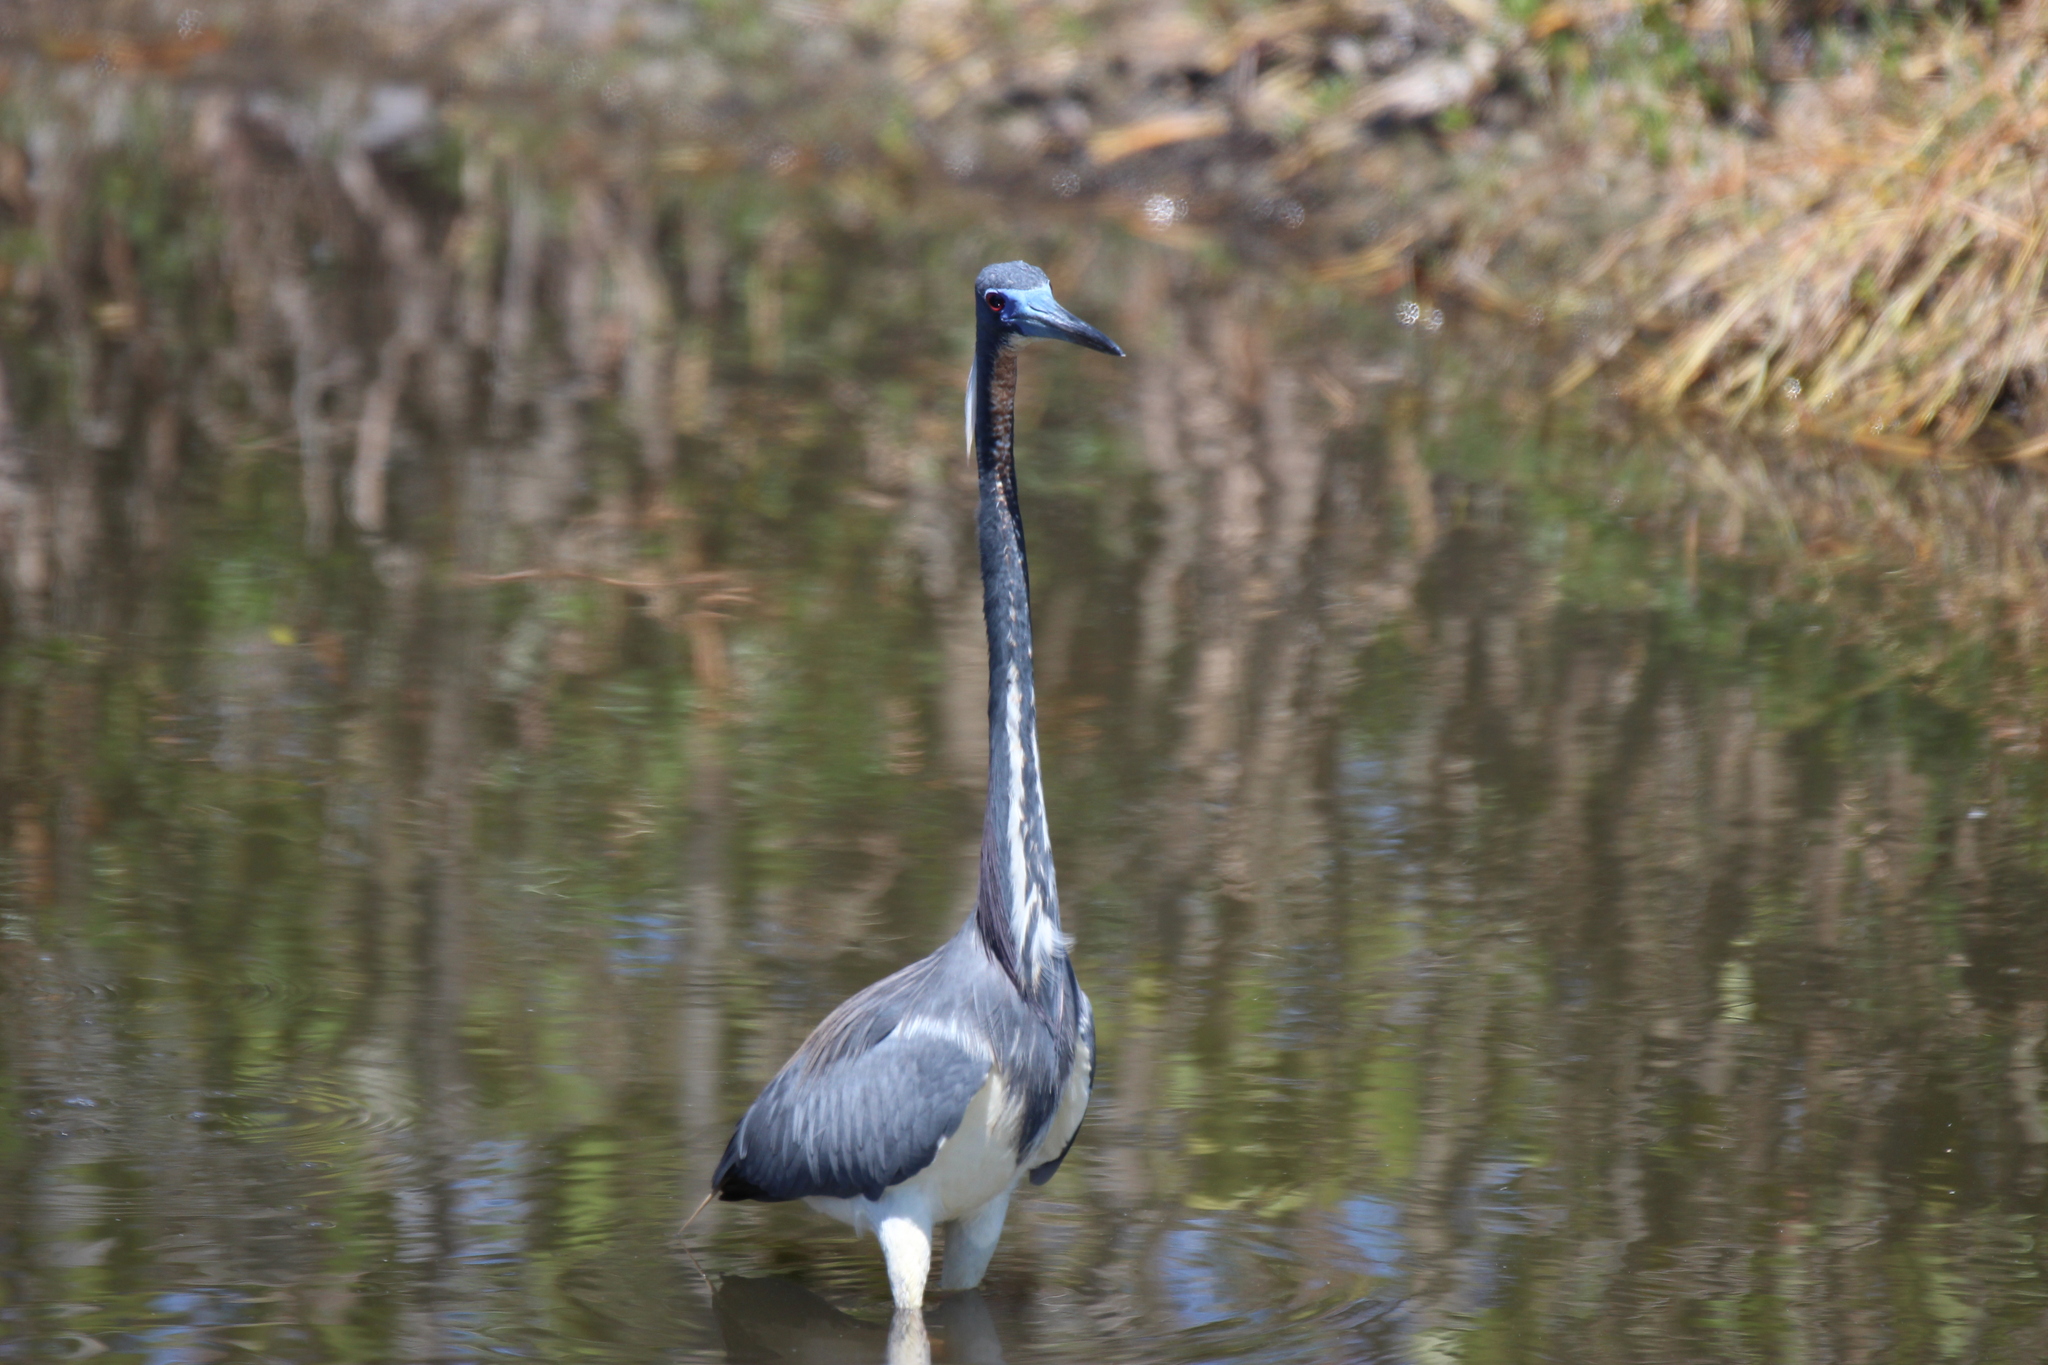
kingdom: Animalia
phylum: Chordata
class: Aves
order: Pelecaniformes
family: Ardeidae
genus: Egretta
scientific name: Egretta tricolor
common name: Tricolored heron
